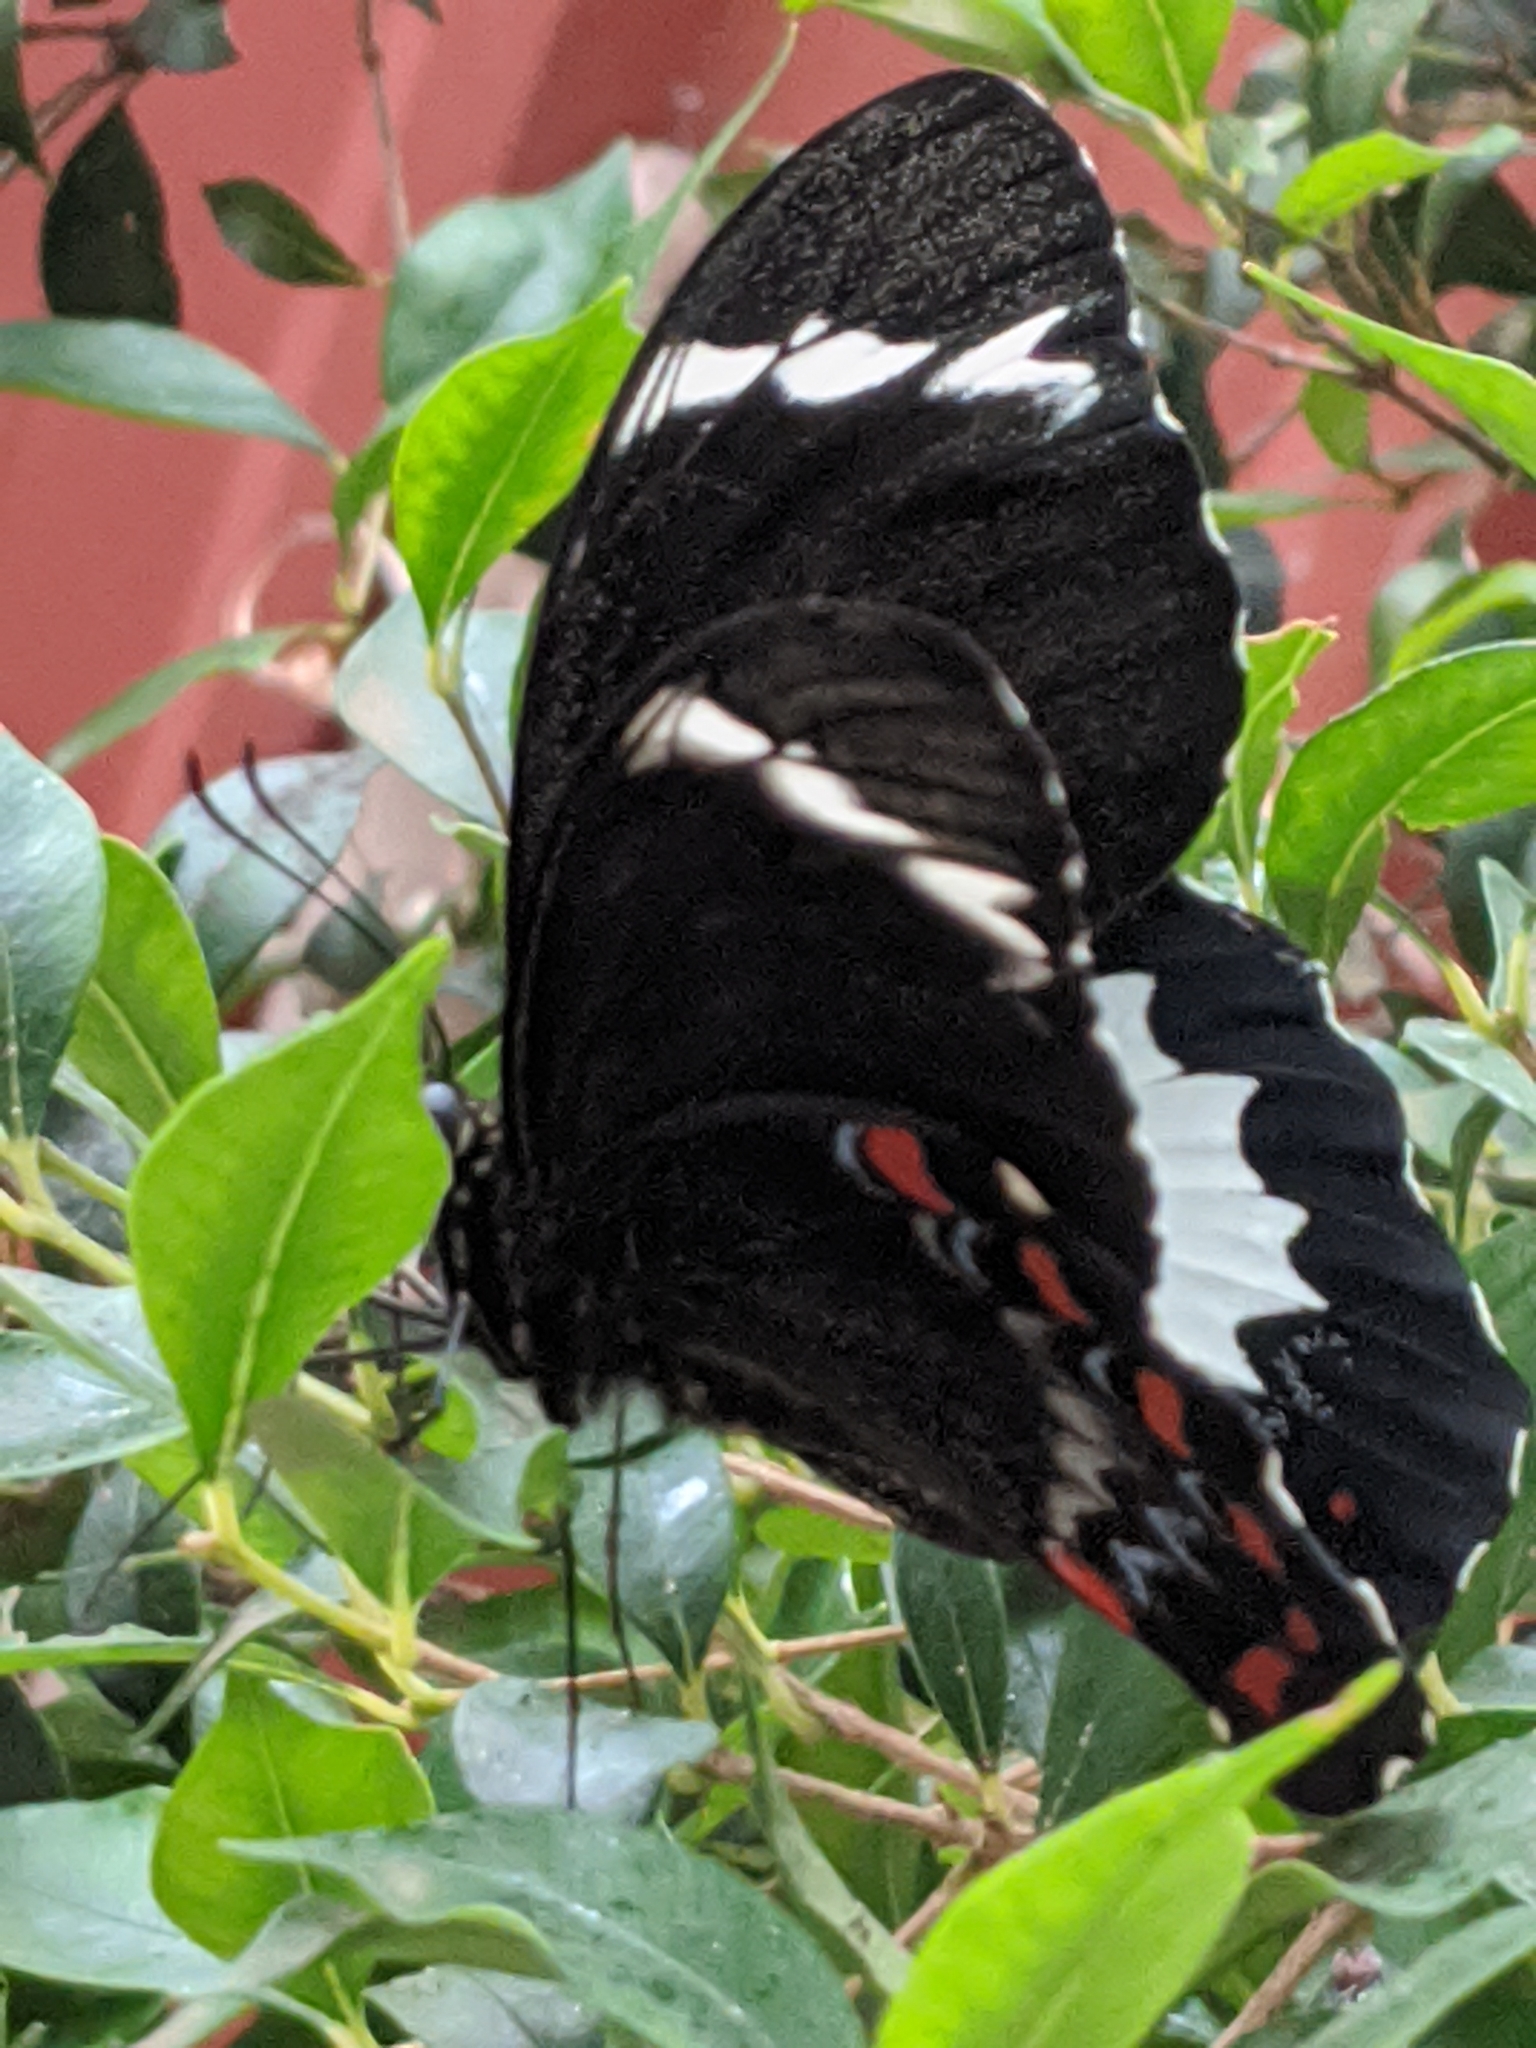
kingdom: Animalia
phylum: Arthropoda
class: Insecta
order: Lepidoptera
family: Papilionidae
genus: Papilio
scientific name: Papilio aegeus
